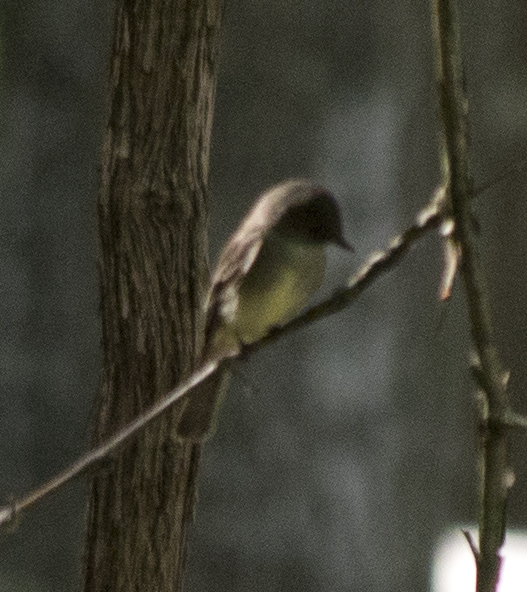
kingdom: Animalia
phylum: Chordata
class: Aves
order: Passeriformes
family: Tyrannidae
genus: Contopus
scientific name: Contopus virens
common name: Eastern wood-pewee
